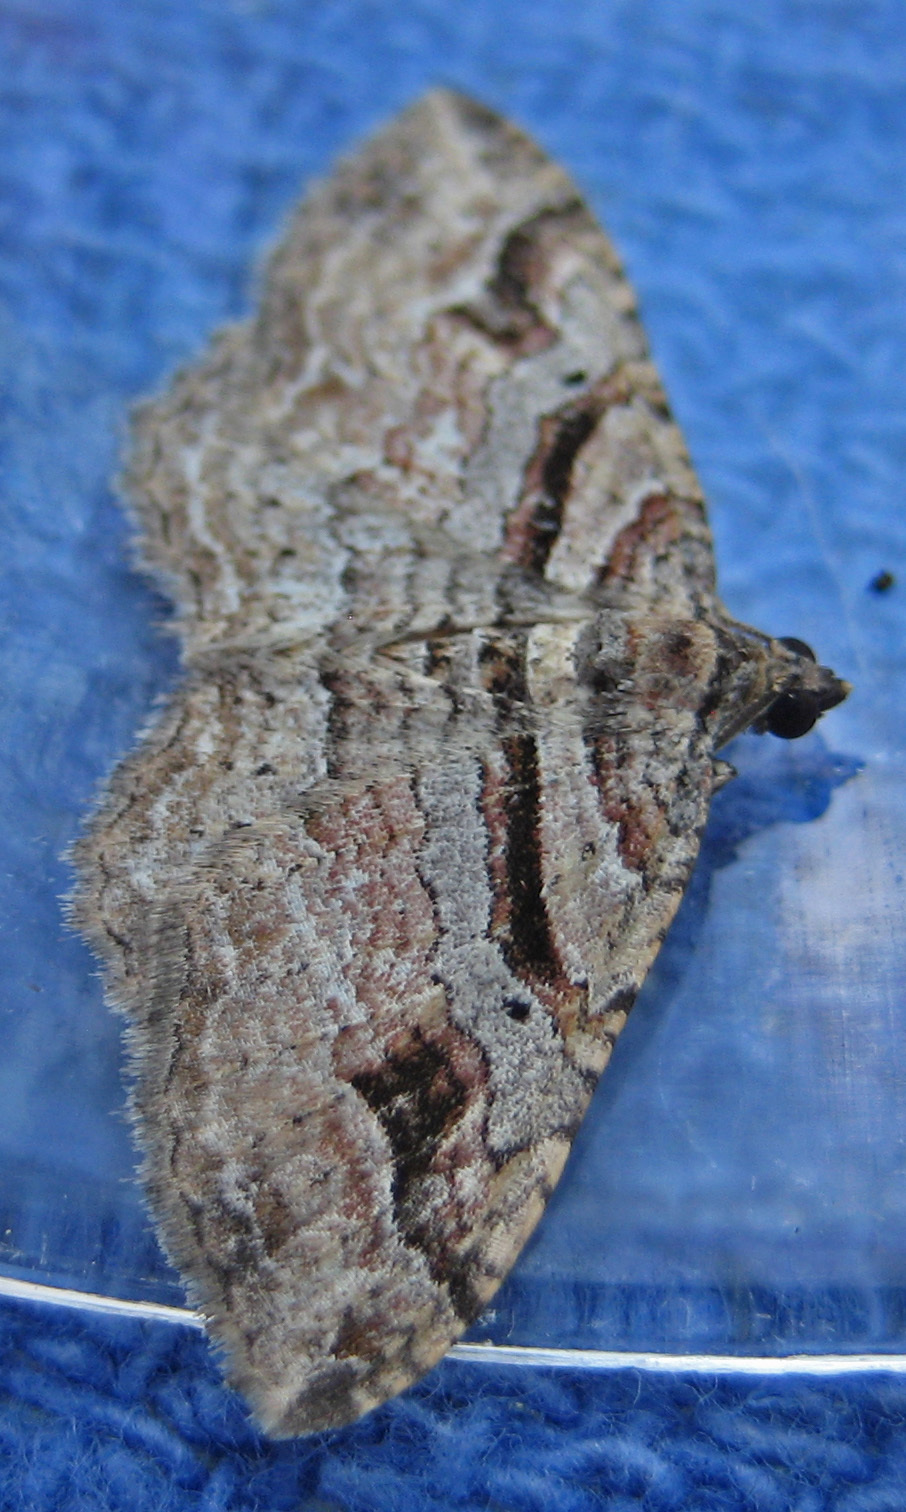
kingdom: Animalia
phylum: Arthropoda
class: Insecta
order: Lepidoptera
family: Geometridae
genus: Costaconvexa
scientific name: Costaconvexa centrostrigaria
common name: Bent-line carpet
